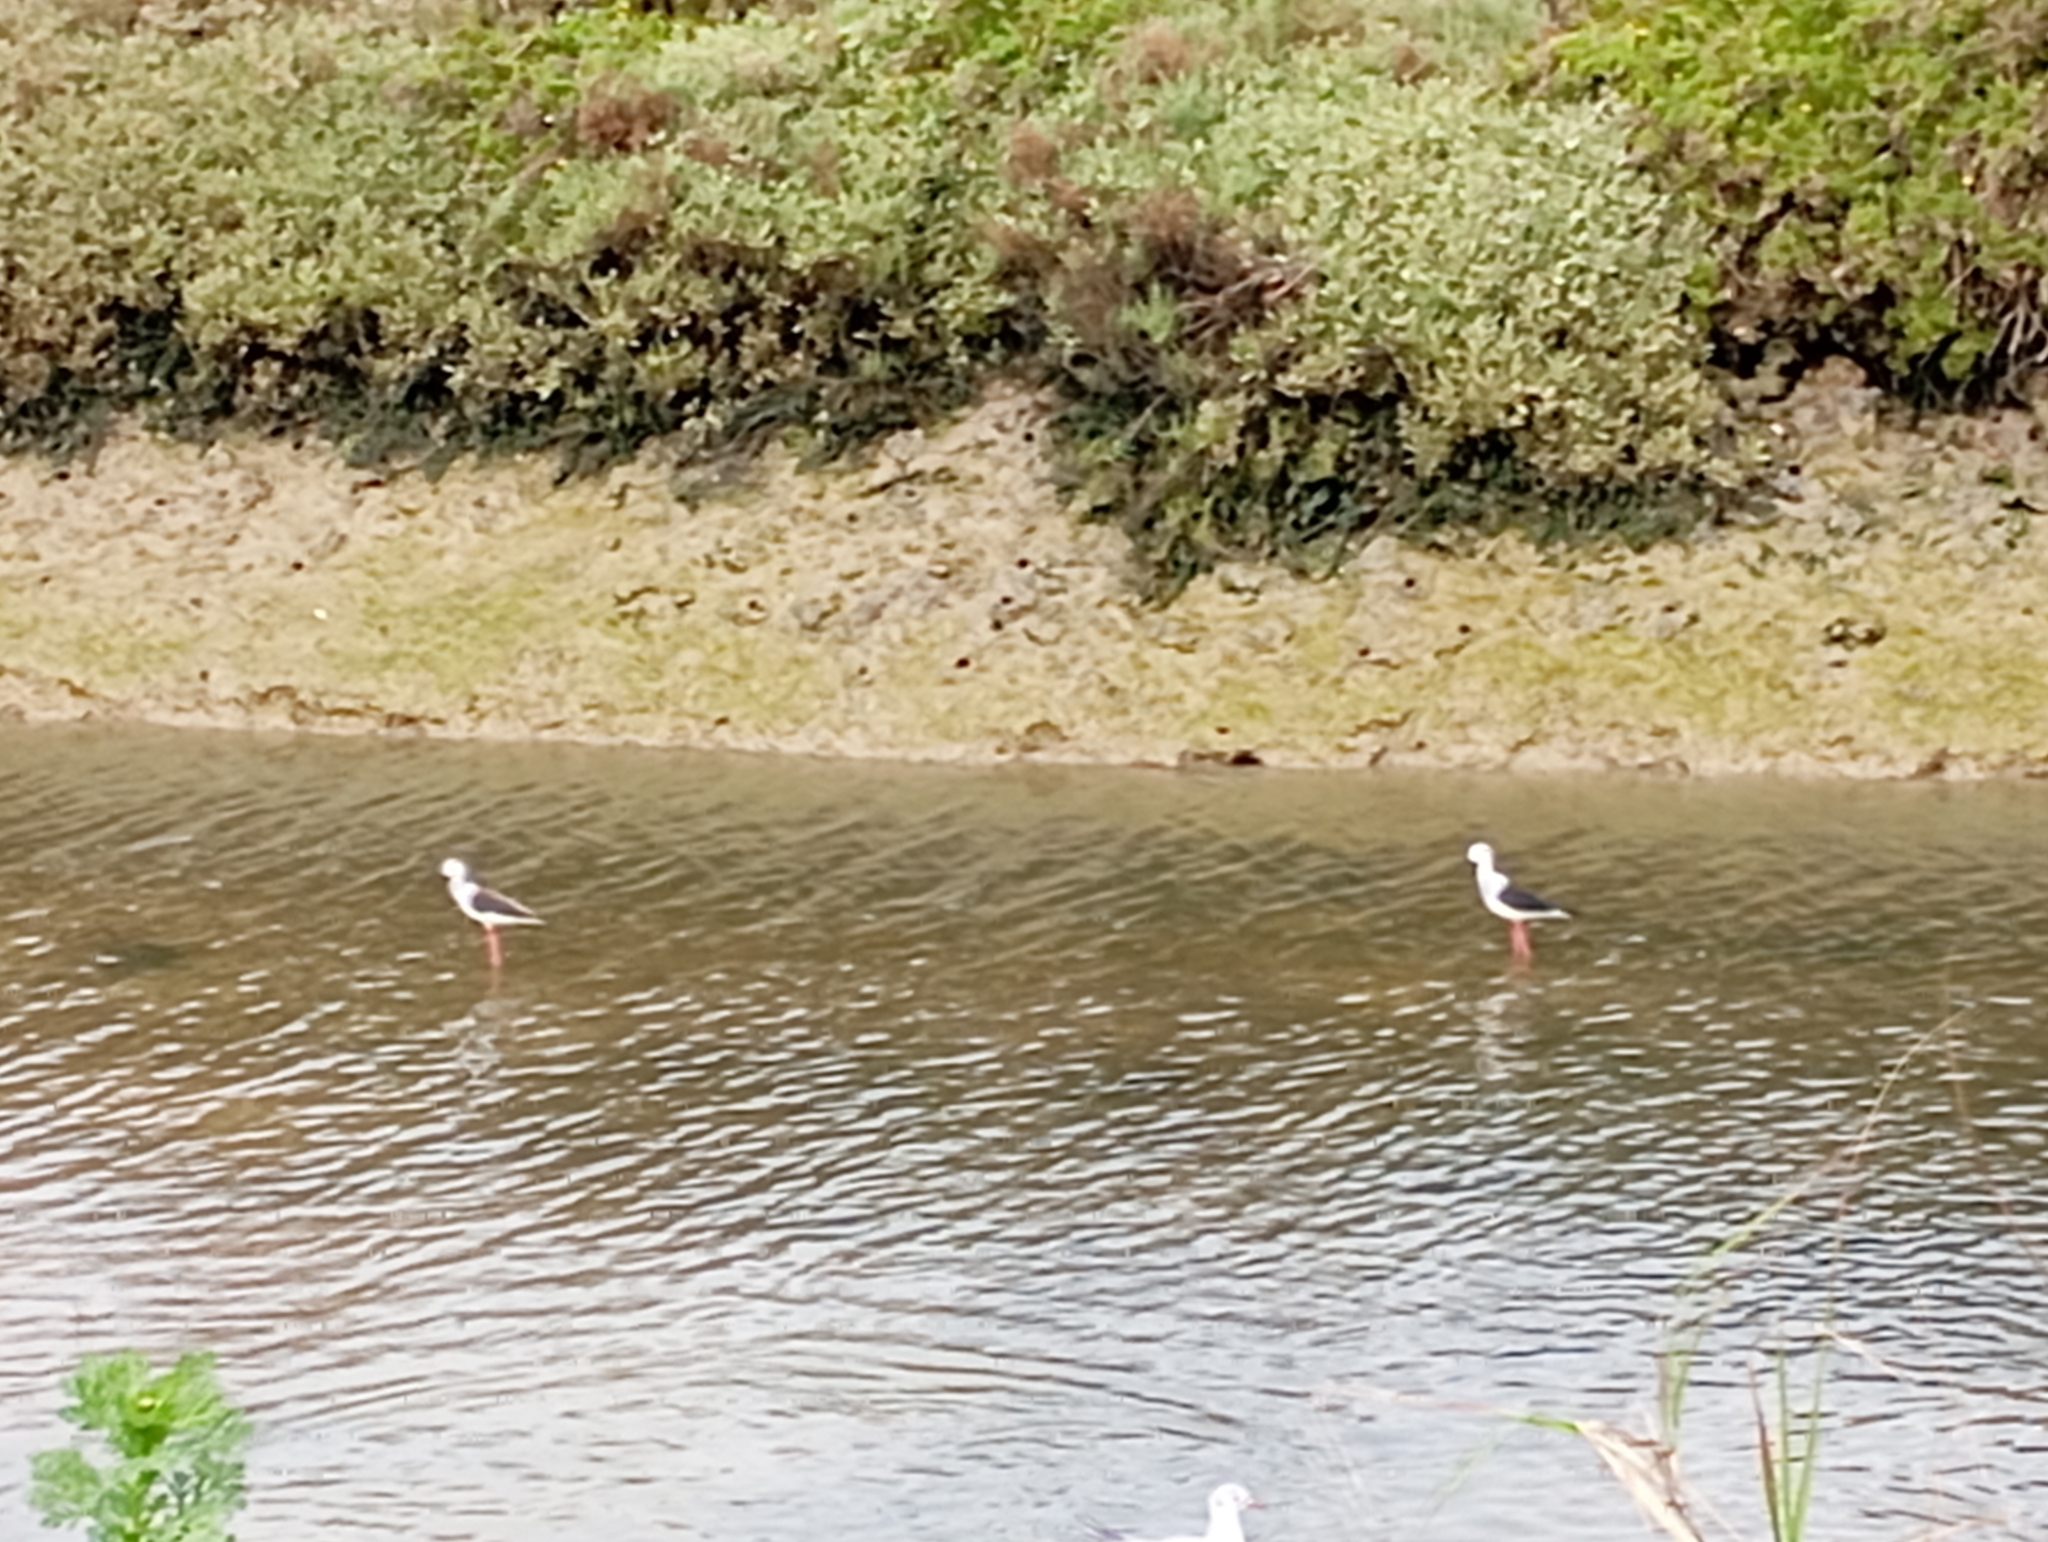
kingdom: Animalia
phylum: Chordata
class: Aves
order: Charadriiformes
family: Recurvirostridae
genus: Himantopus
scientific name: Himantopus himantopus
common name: Black-winged stilt
